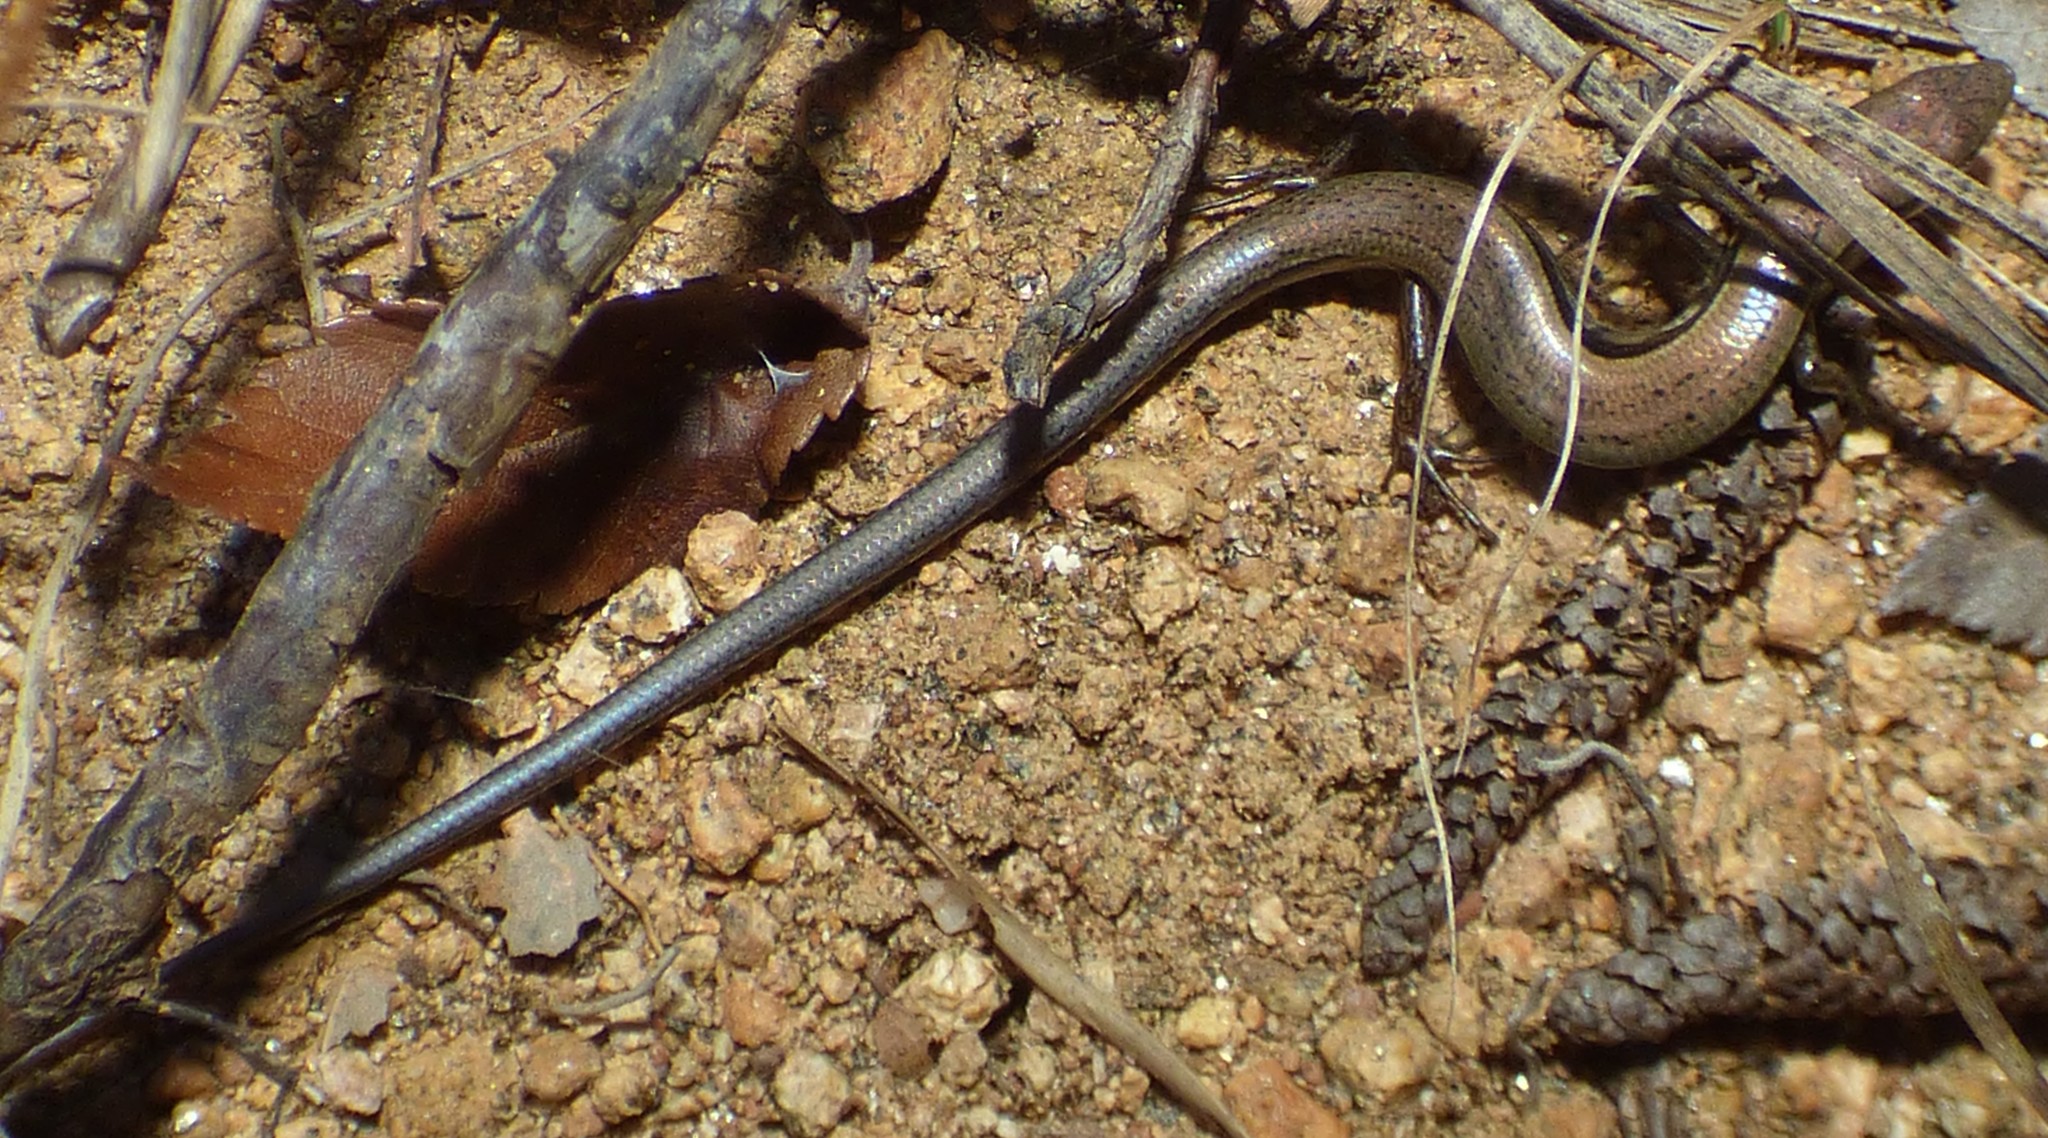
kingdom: Animalia
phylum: Chordata
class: Squamata
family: Scincidae
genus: Scincella
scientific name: Scincella lateralis
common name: Ground skink
